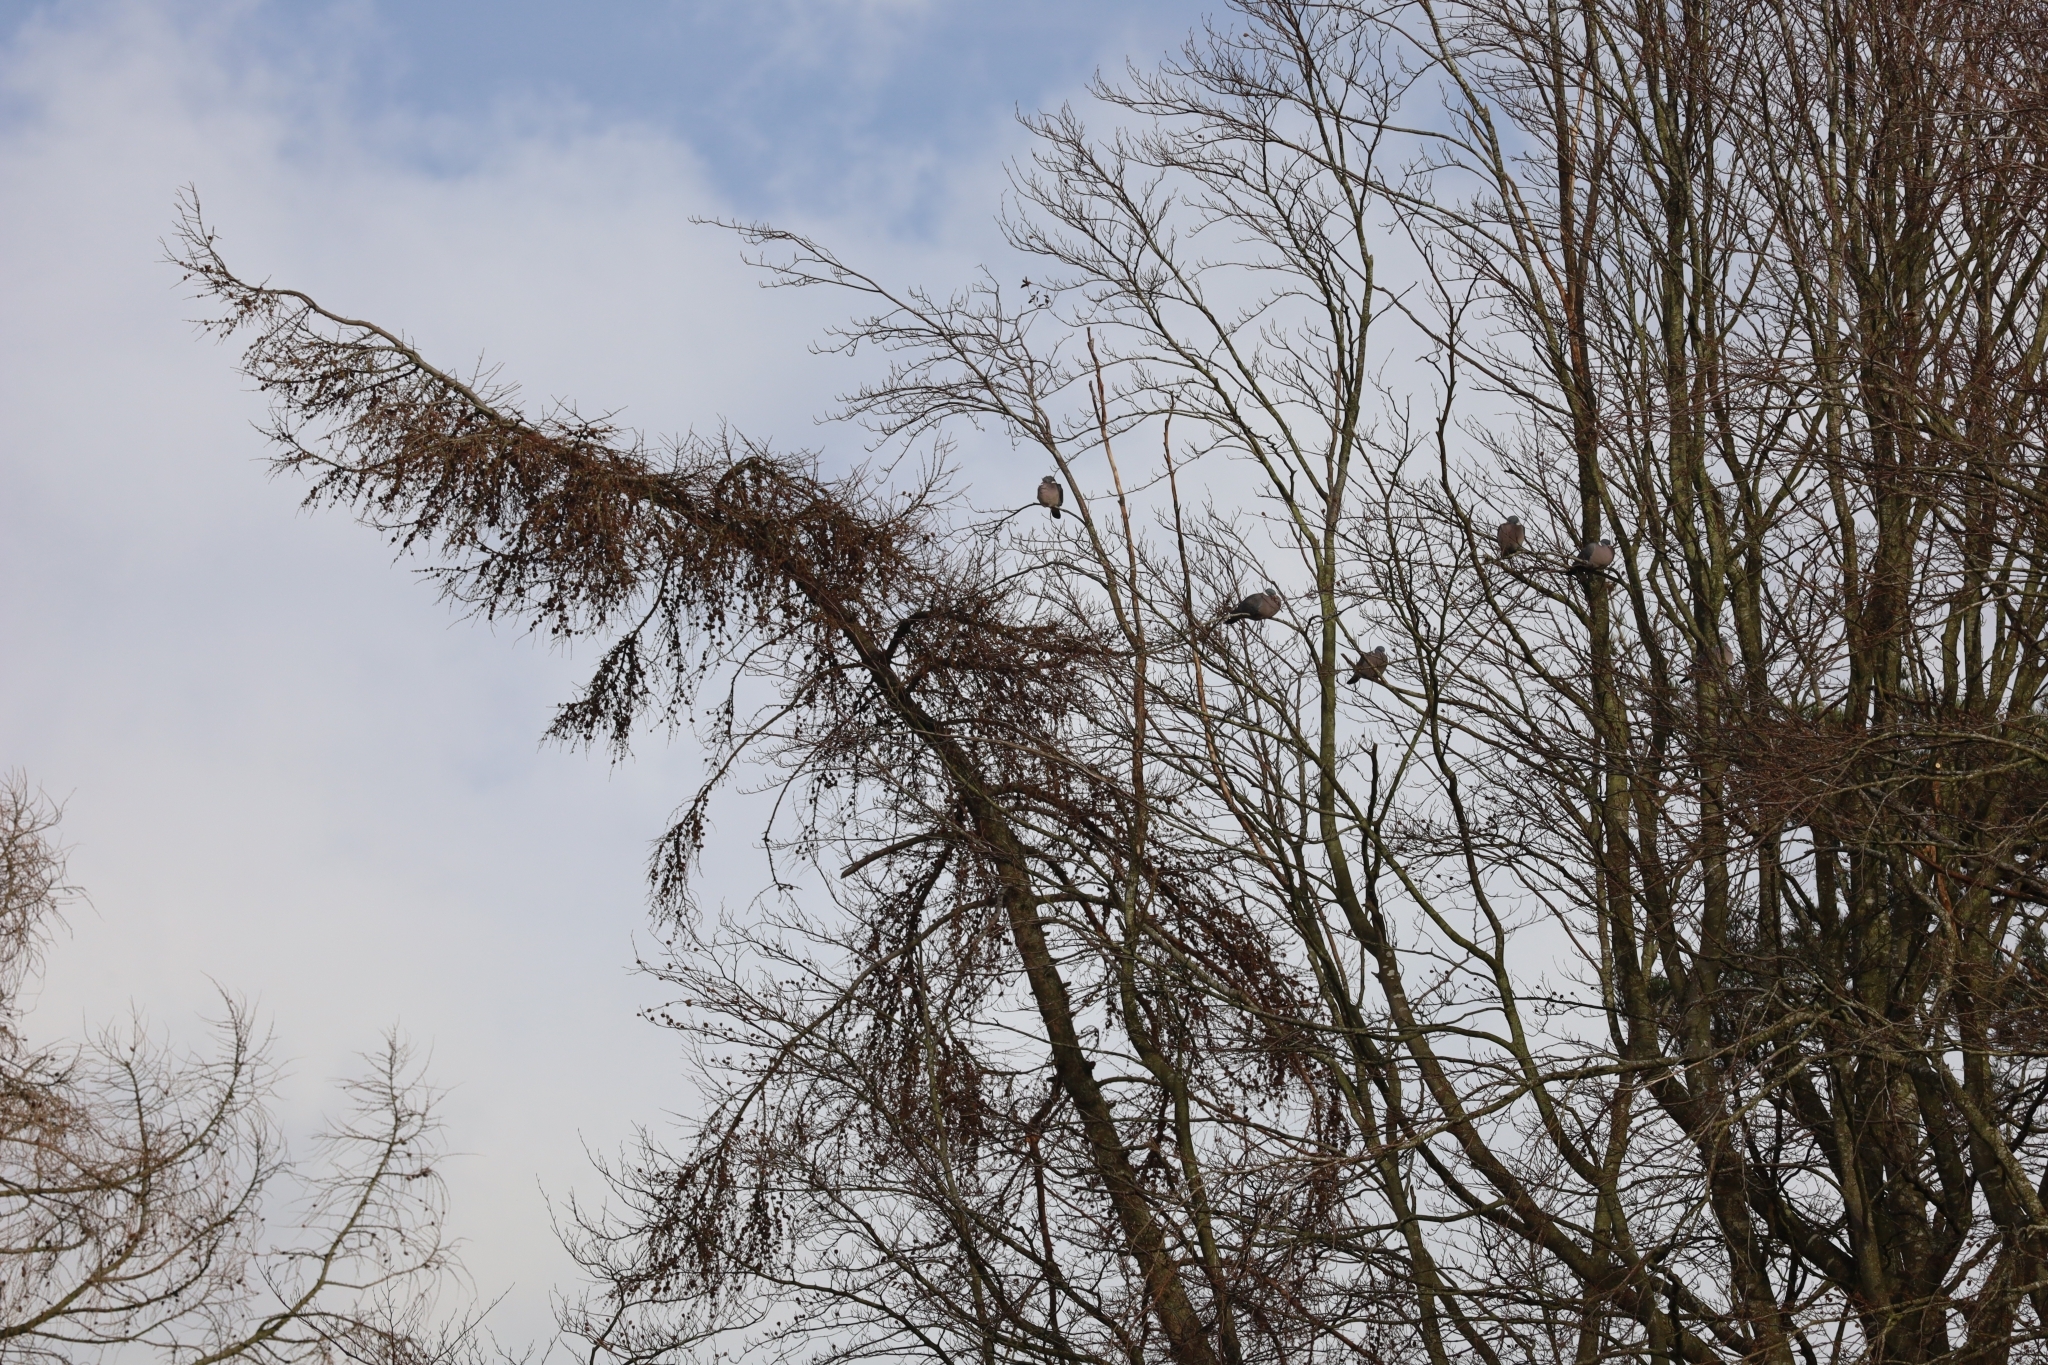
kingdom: Animalia
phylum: Chordata
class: Aves
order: Columbiformes
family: Columbidae
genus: Columba
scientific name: Columba palumbus
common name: Common wood pigeon
